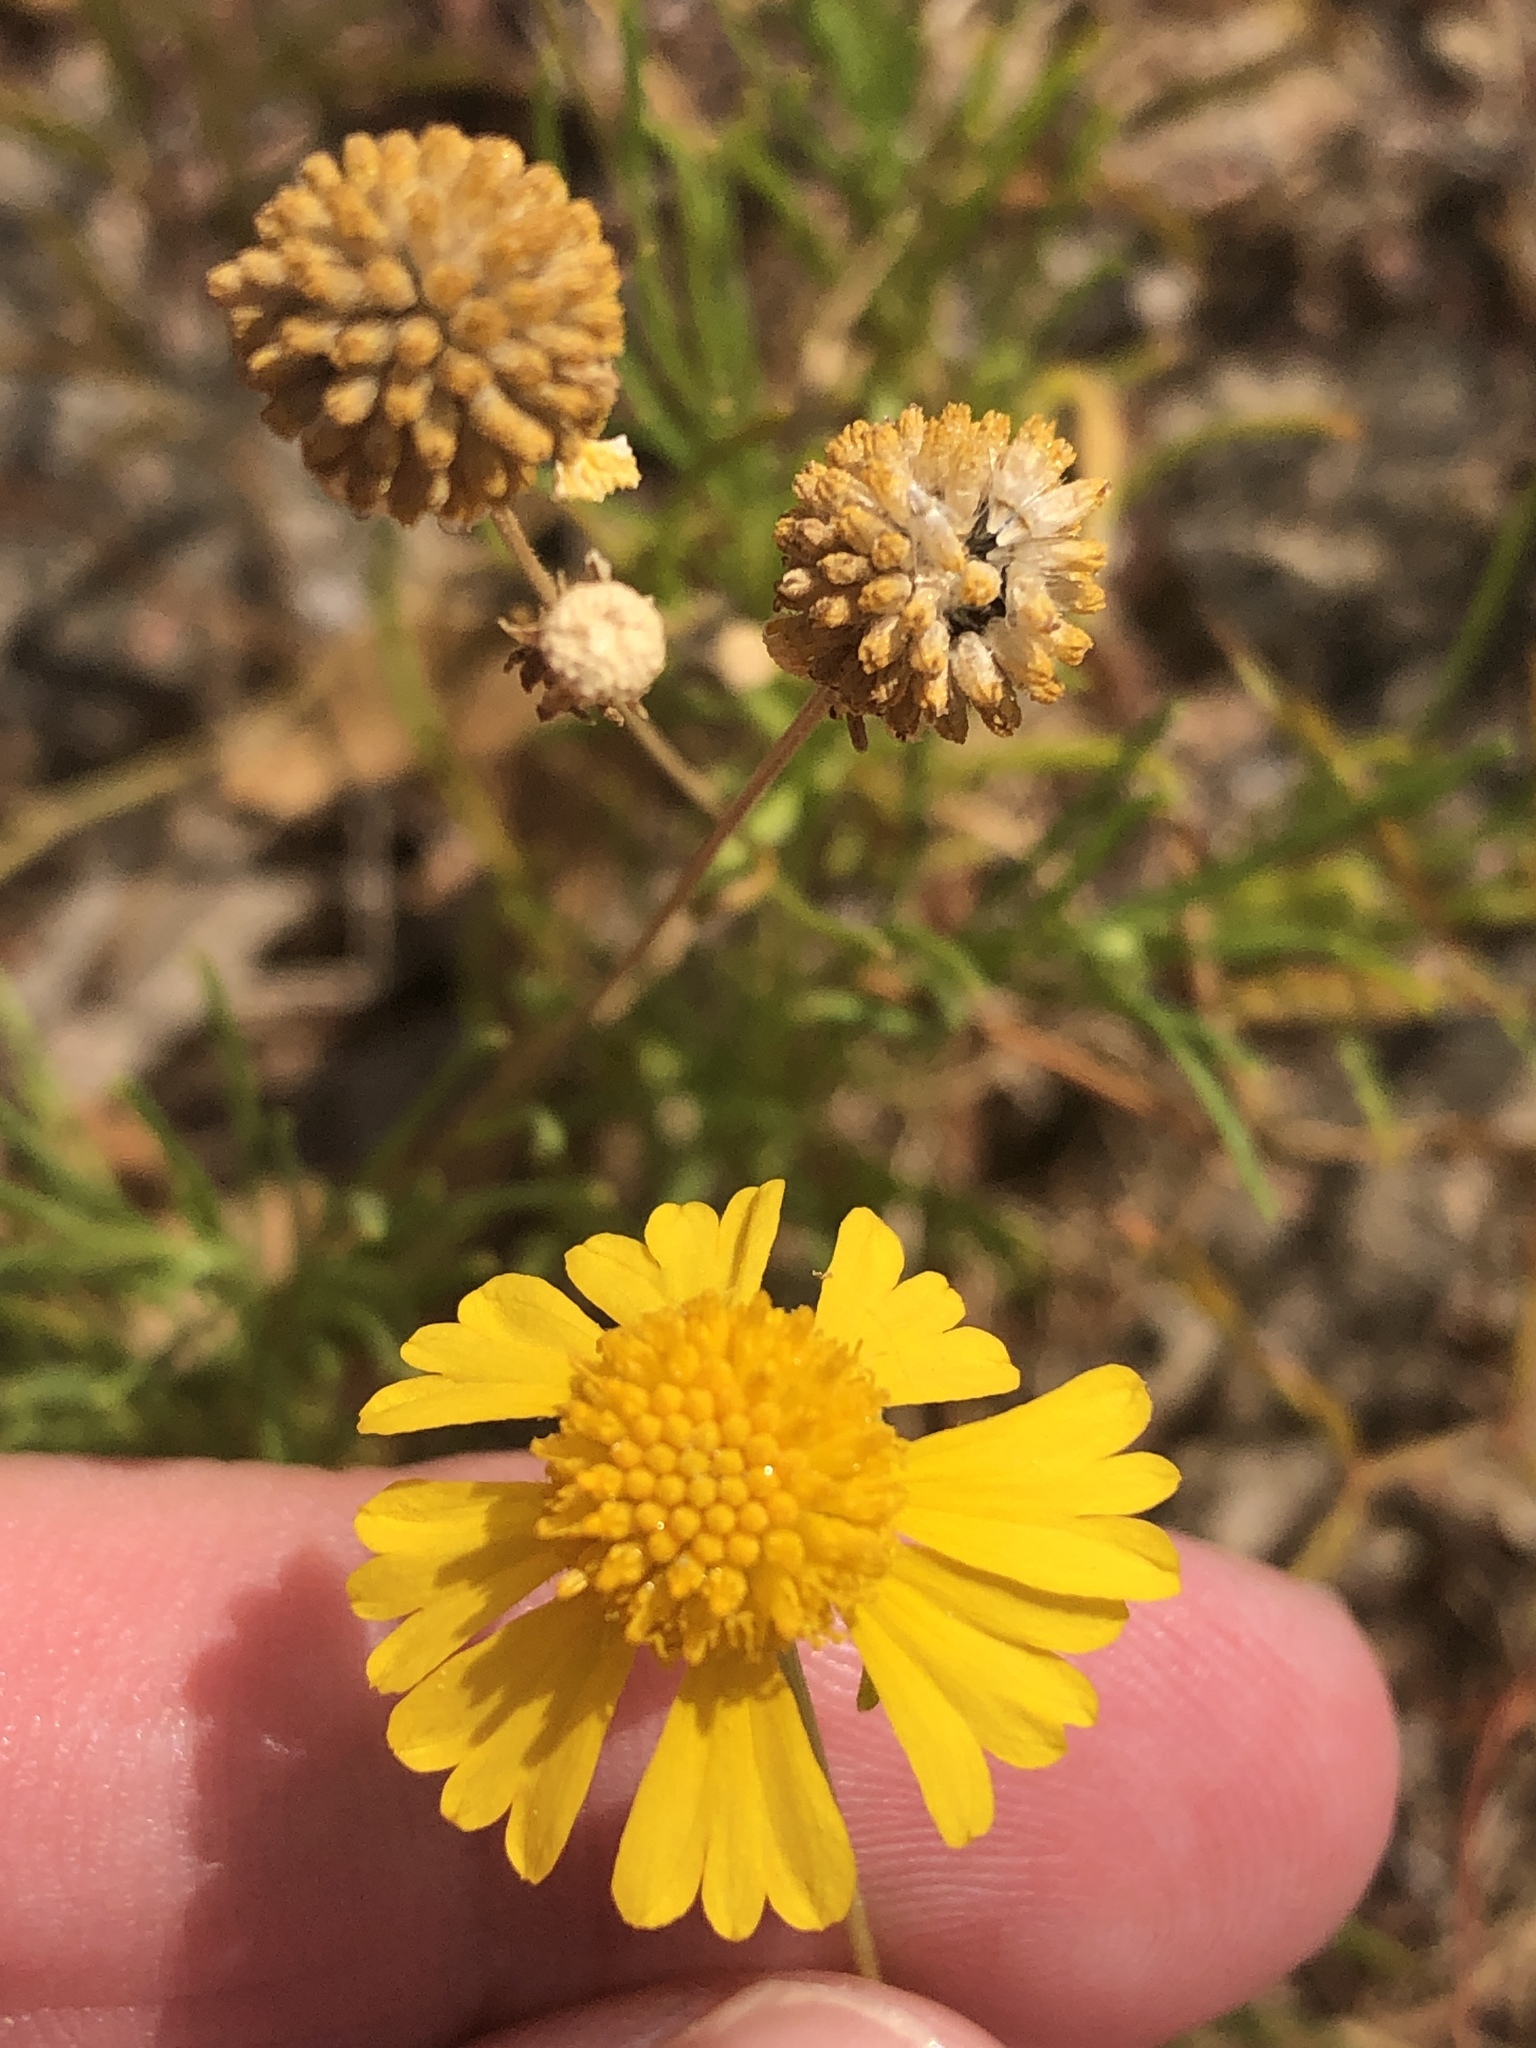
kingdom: Plantae
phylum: Tracheophyta
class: Magnoliopsida
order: Asterales
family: Asteraceae
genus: Helenium
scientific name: Helenium amarum
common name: Bitter sneezeweed
